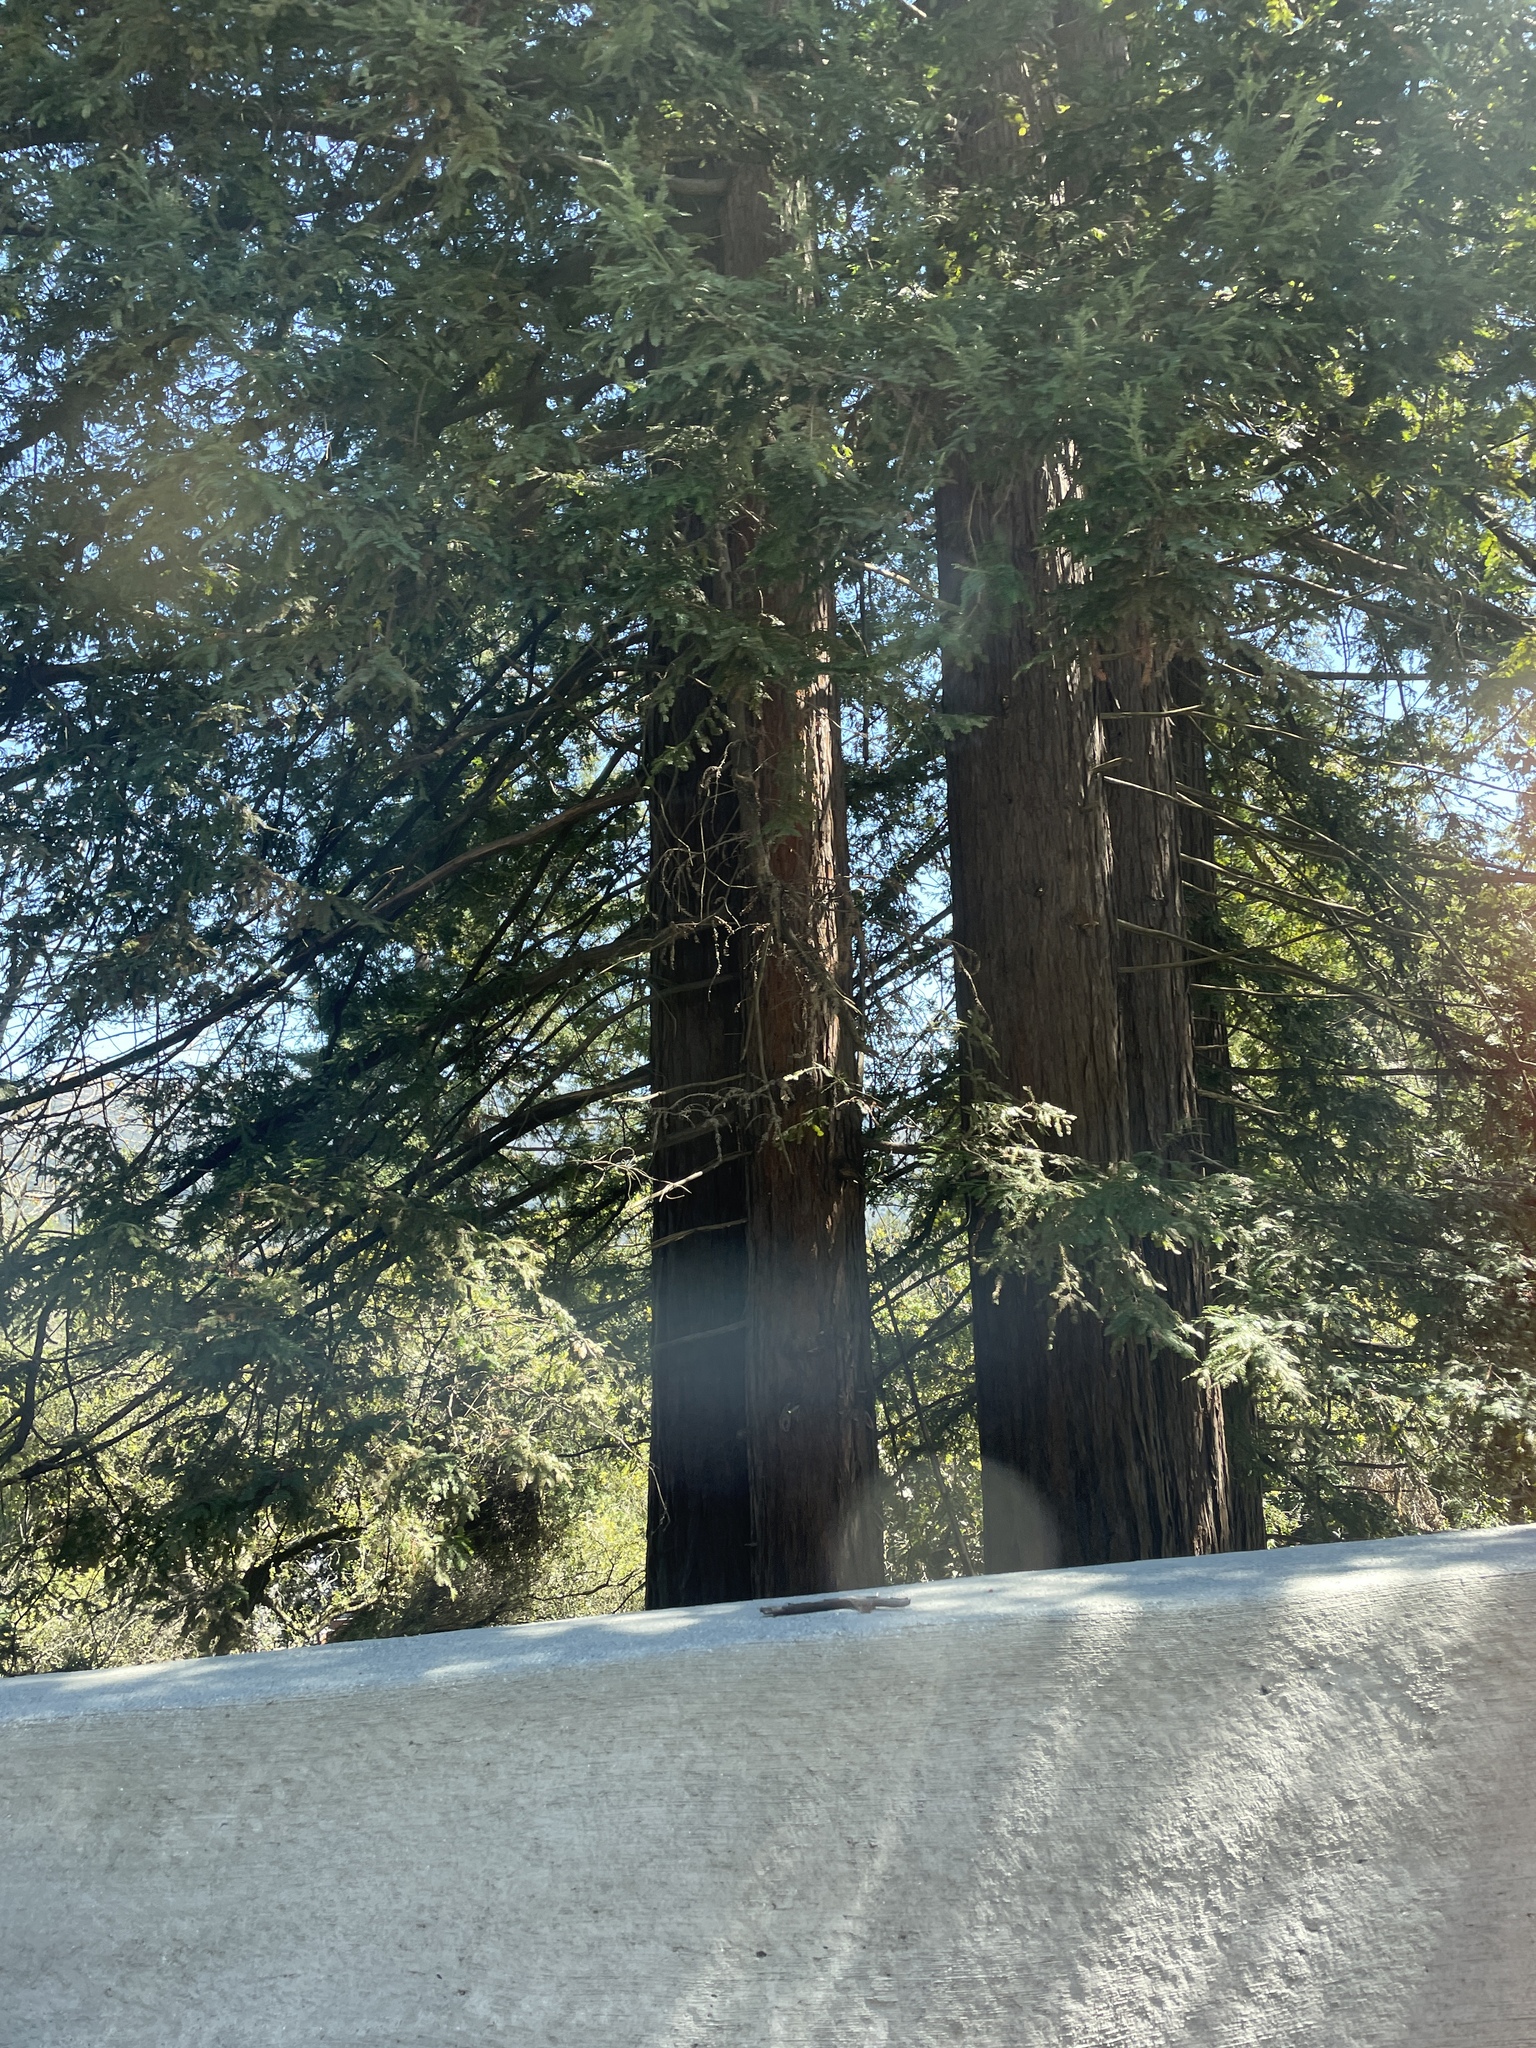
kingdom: Plantae
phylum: Tracheophyta
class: Pinopsida
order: Pinales
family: Cupressaceae
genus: Sequoia
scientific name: Sequoia sempervirens
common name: Coast redwood
